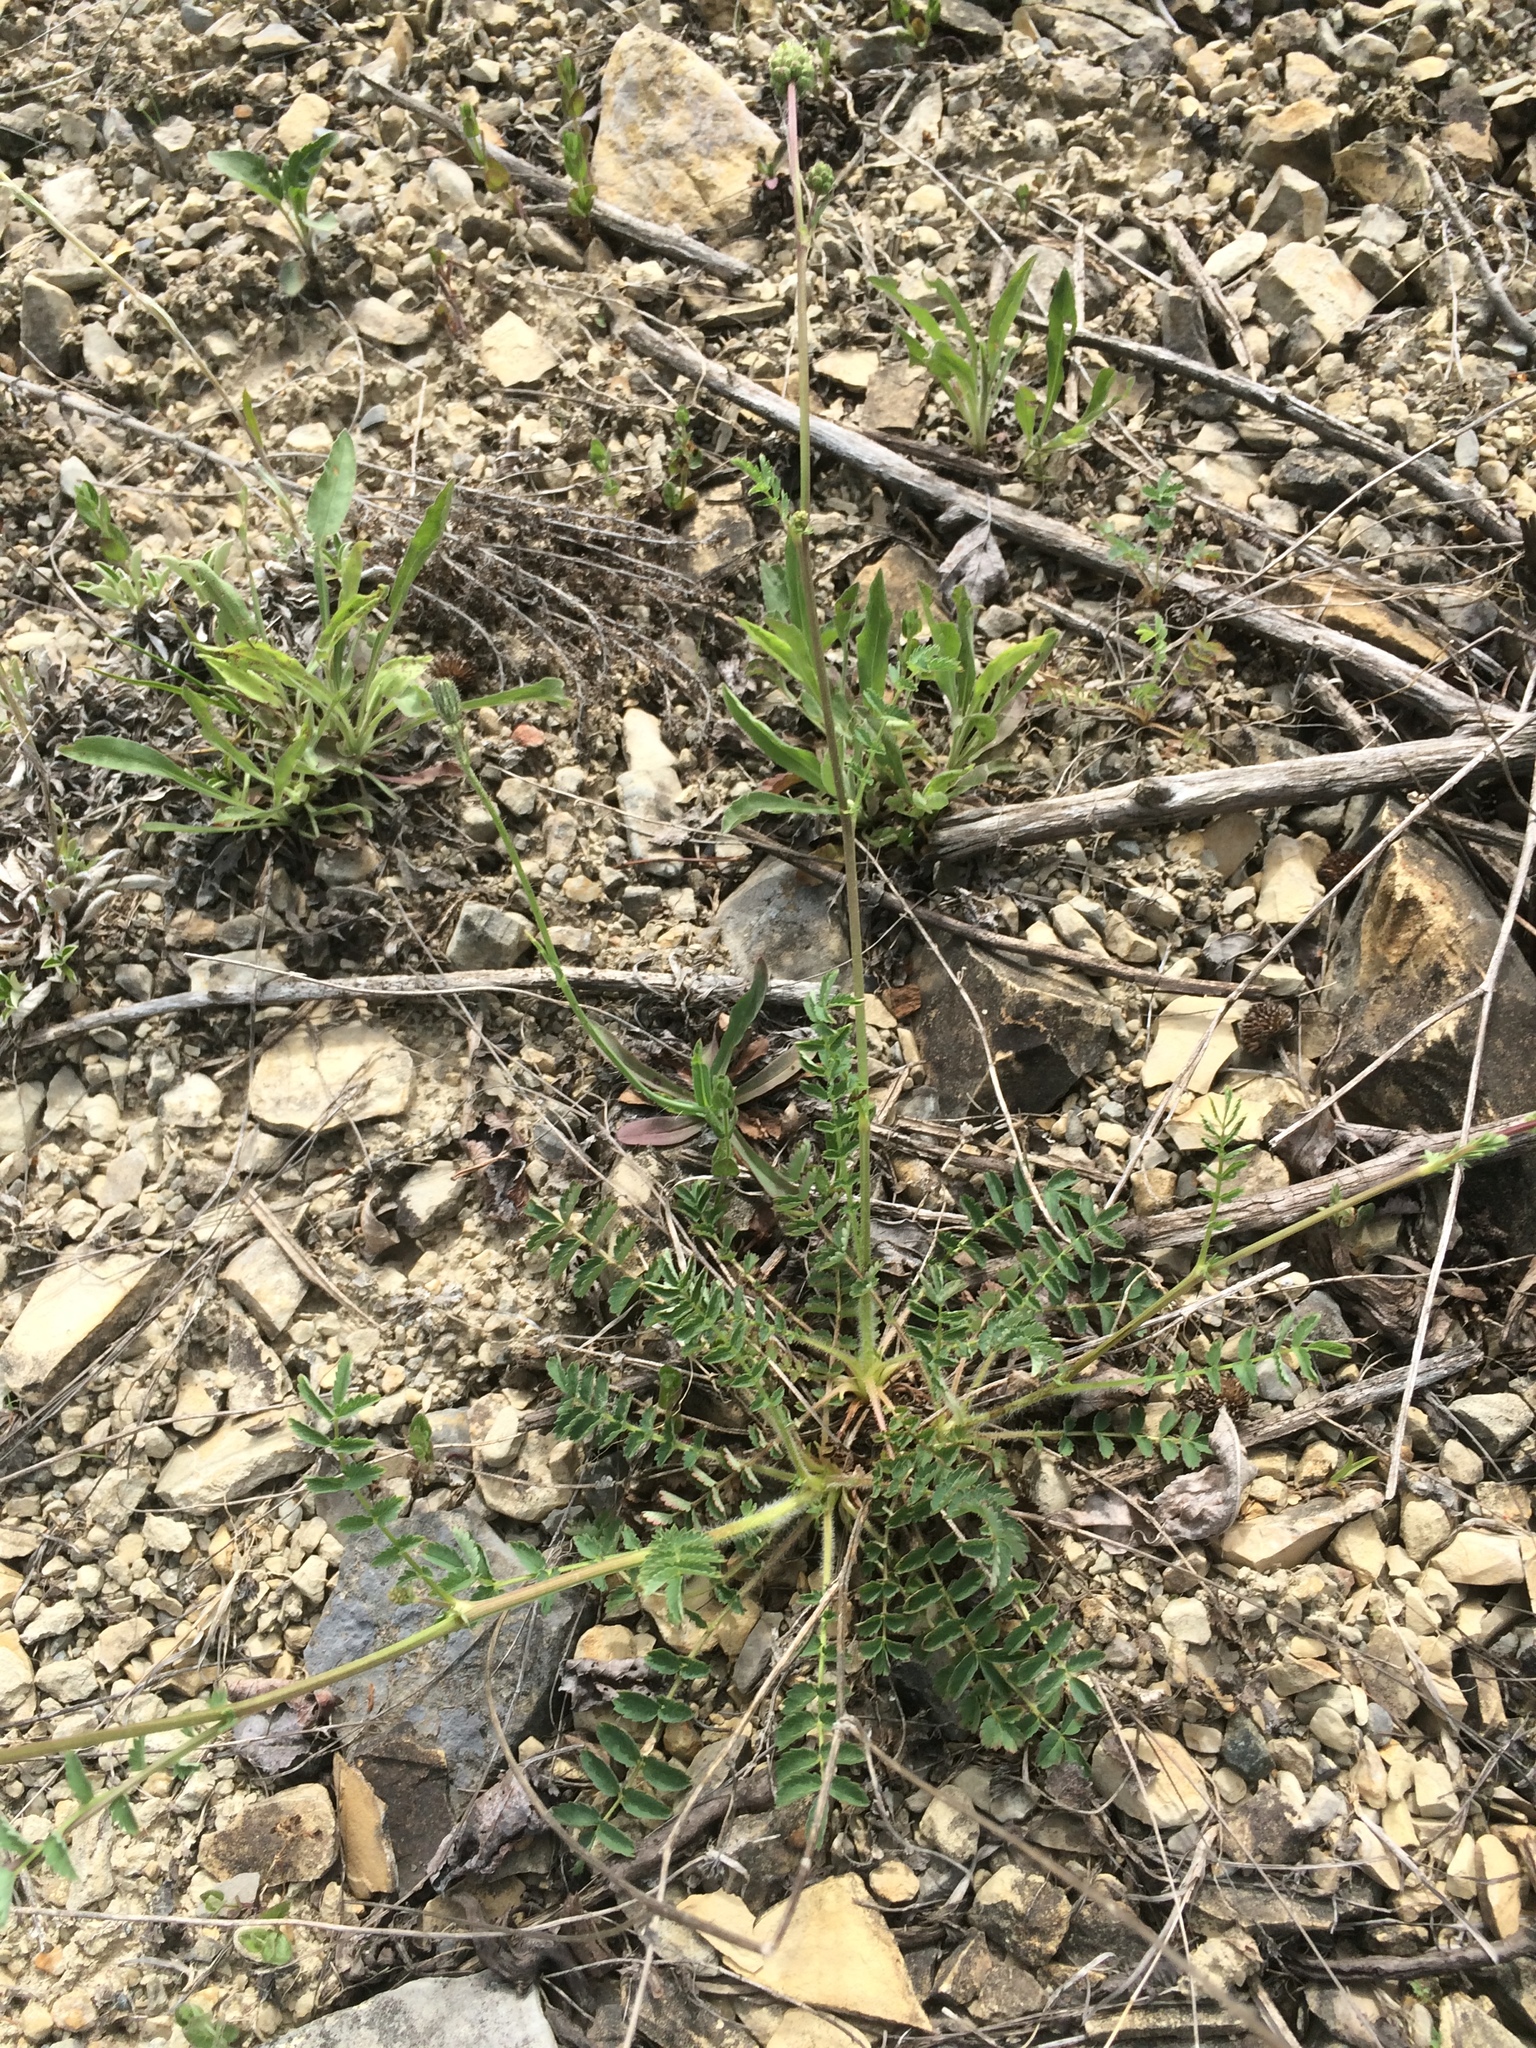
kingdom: Plantae
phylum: Tracheophyta
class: Magnoliopsida
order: Rosales
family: Rosaceae
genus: Poterium
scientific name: Poterium sanguisorba
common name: Salad burnet
